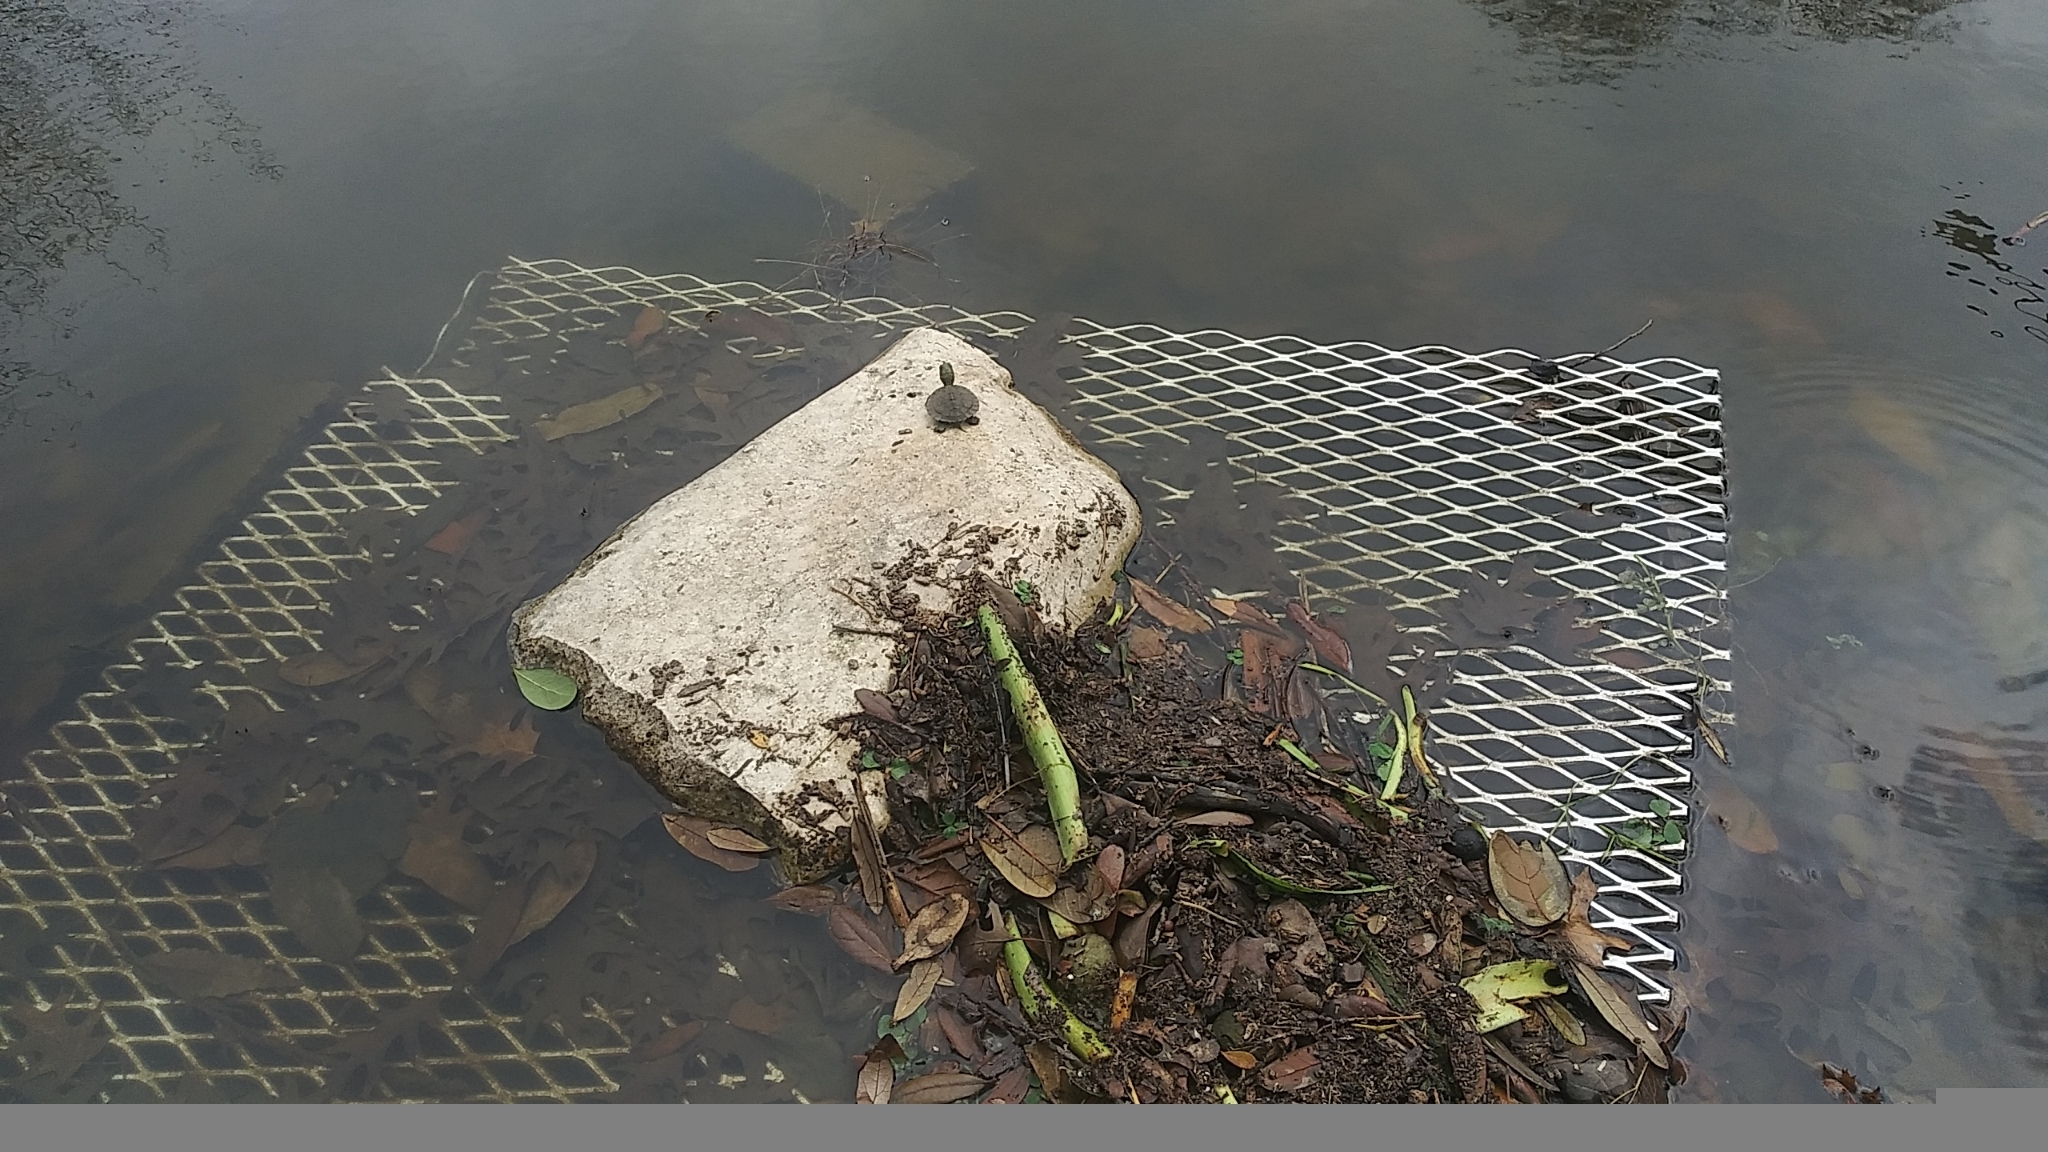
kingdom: Animalia
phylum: Chordata
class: Testudines
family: Emydidae
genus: Trachemys
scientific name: Trachemys scripta
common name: Slider
